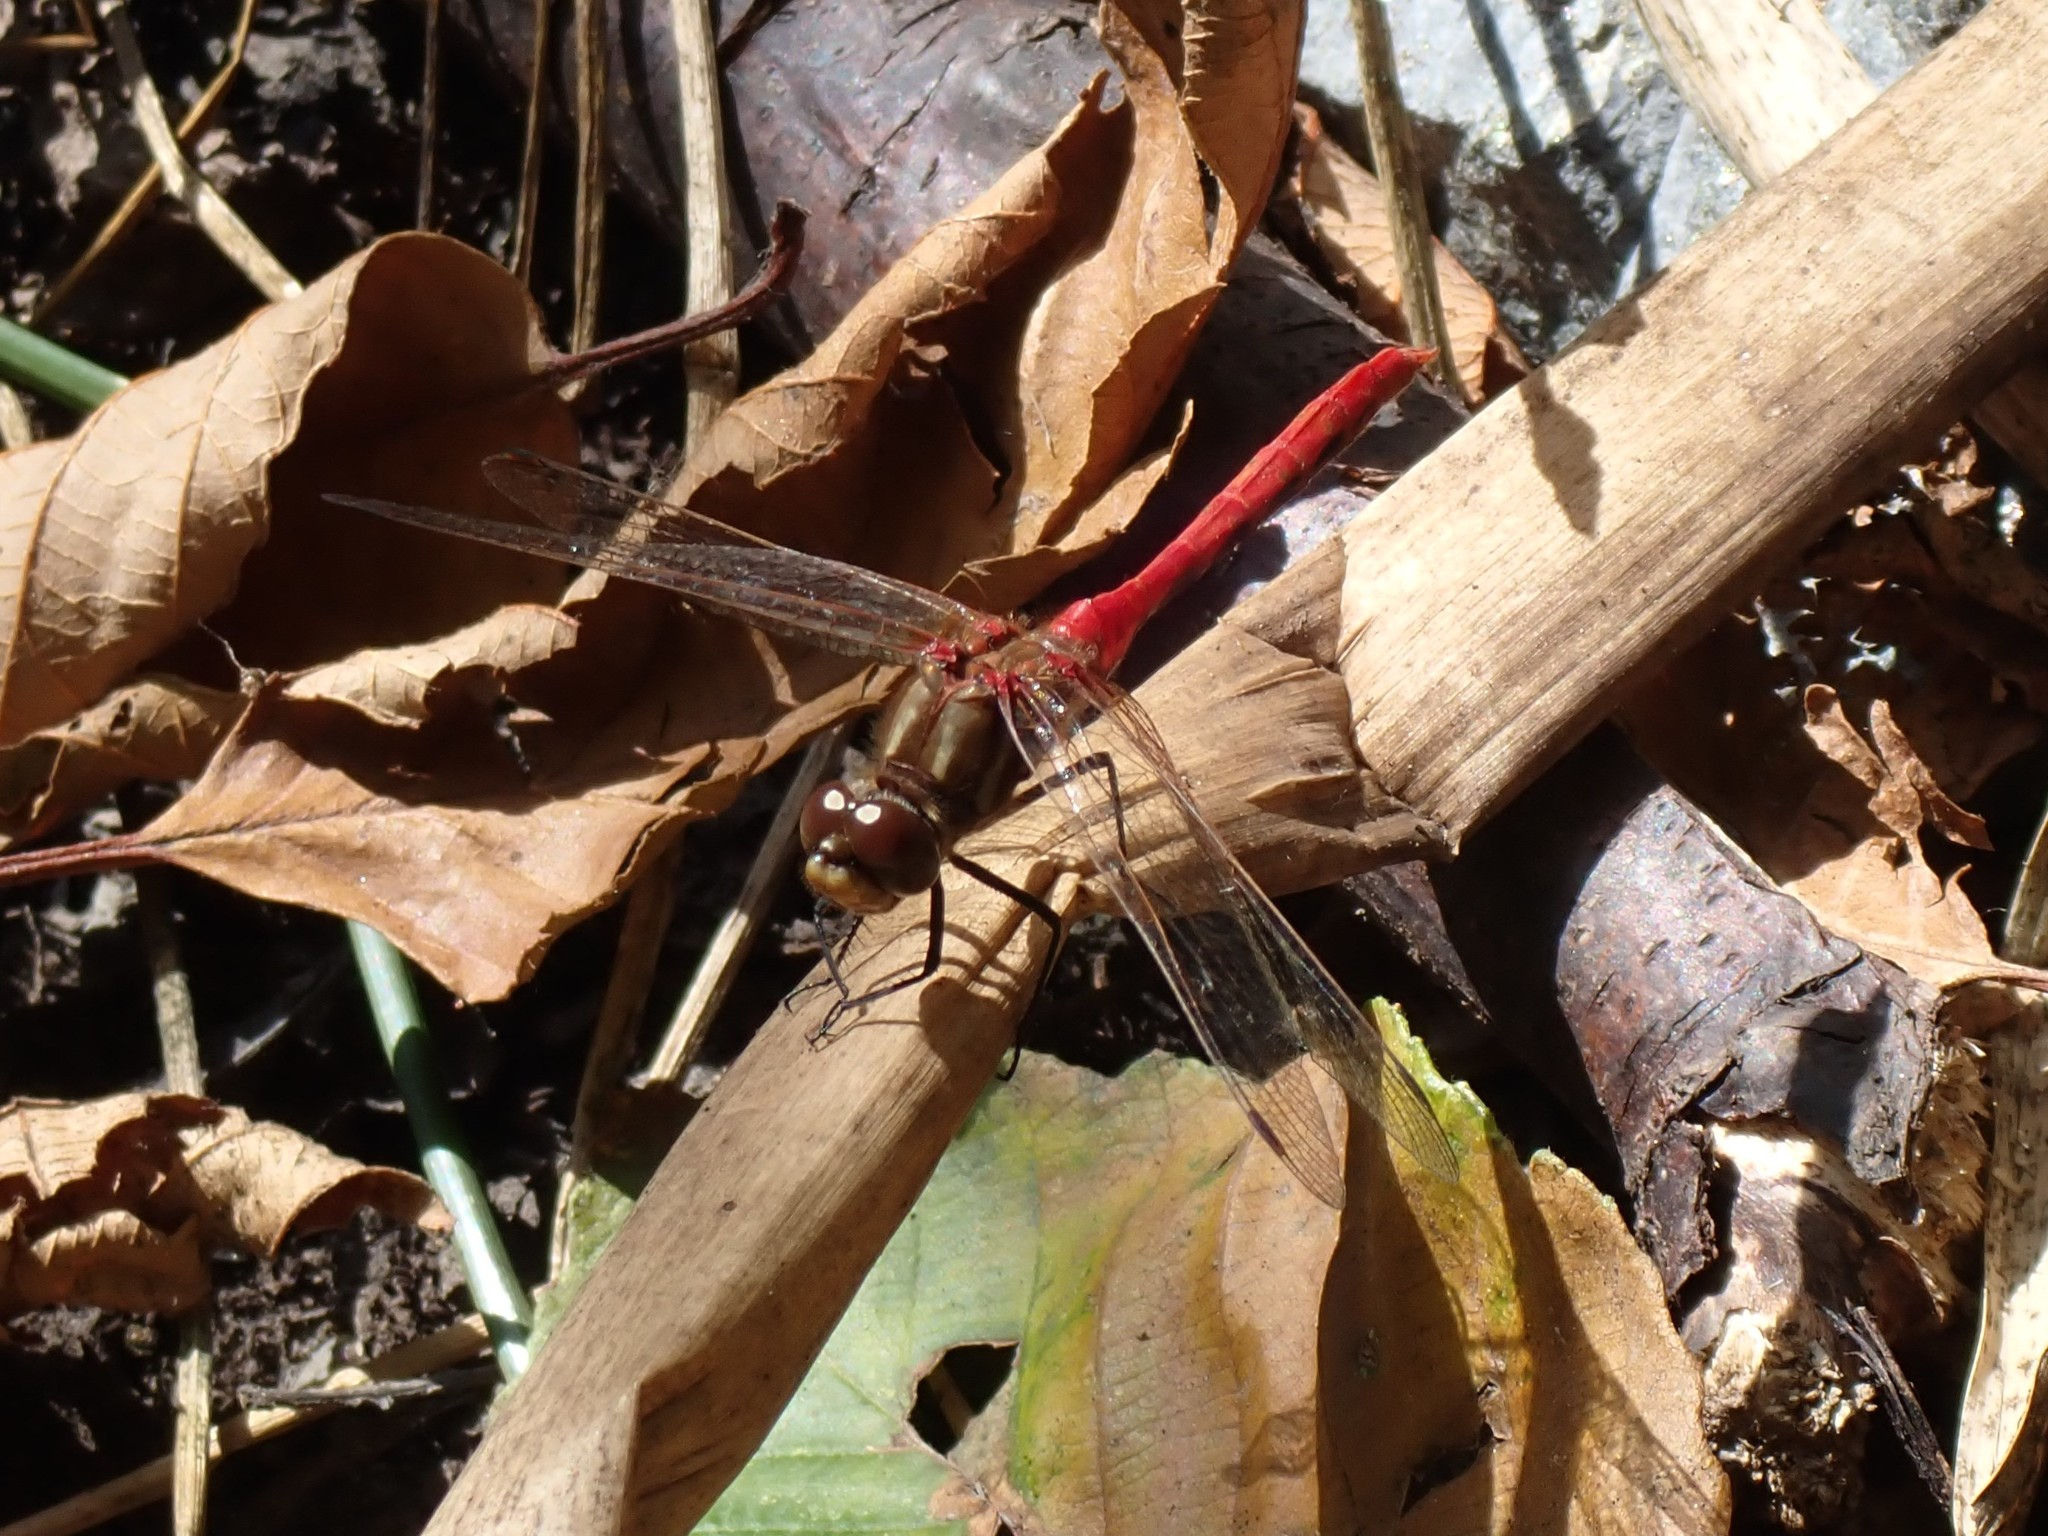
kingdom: Animalia
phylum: Arthropoda
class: Insecta
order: Odonata
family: Libellulidae
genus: Sympetrum
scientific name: Sympetrum pallipes
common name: Striped meadowhawk
